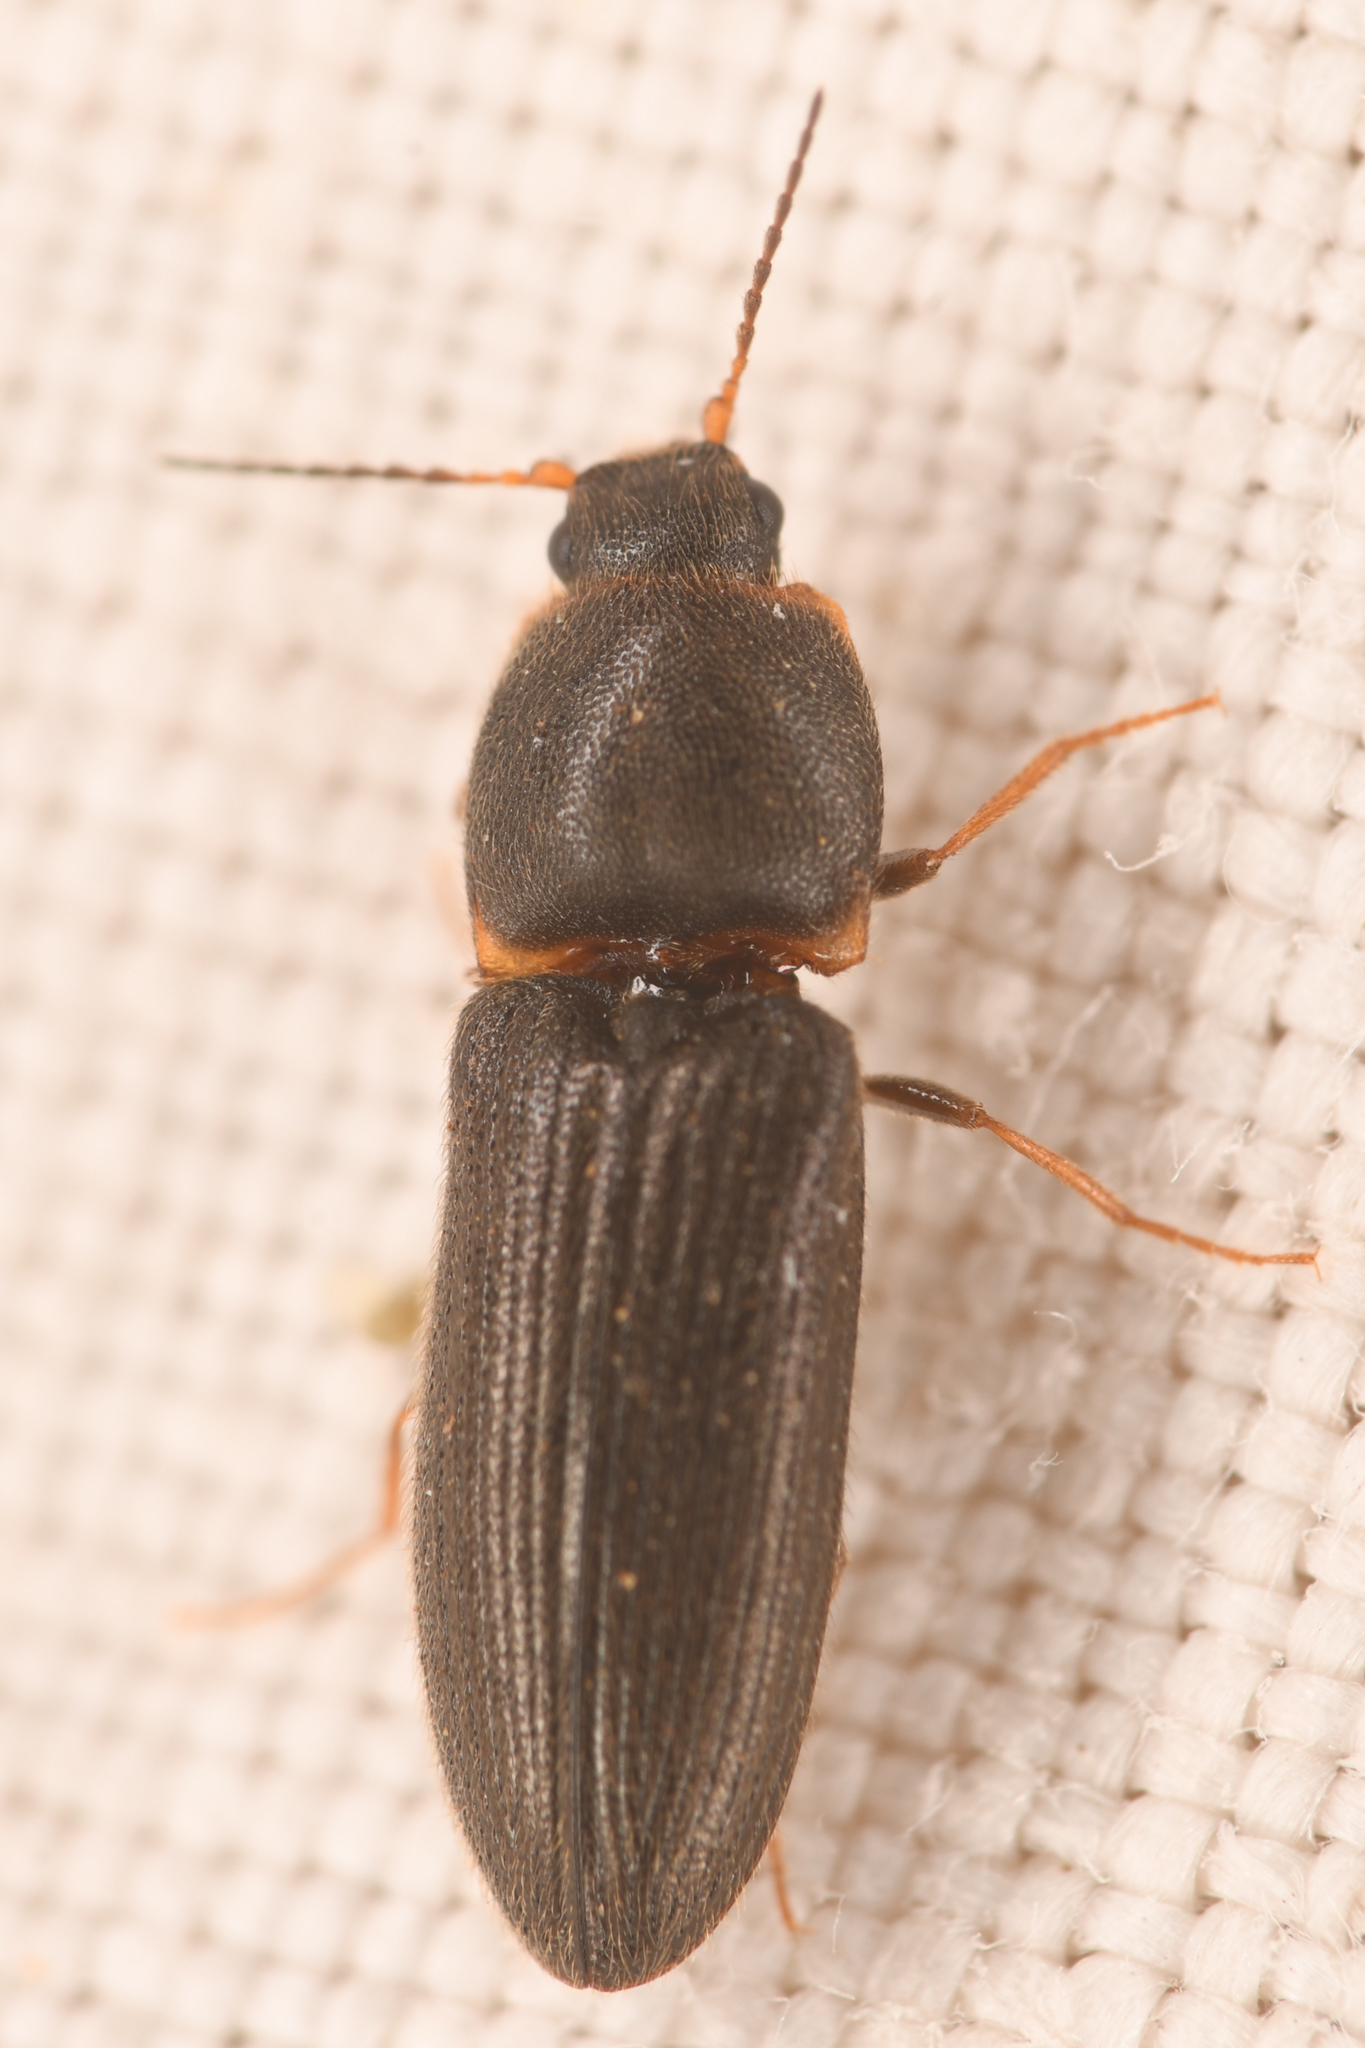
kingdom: Animalia
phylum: Arthropoda
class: Insecta
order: Coleoptera
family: Elateridae
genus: Tetralimonius
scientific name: Tetralimonius
